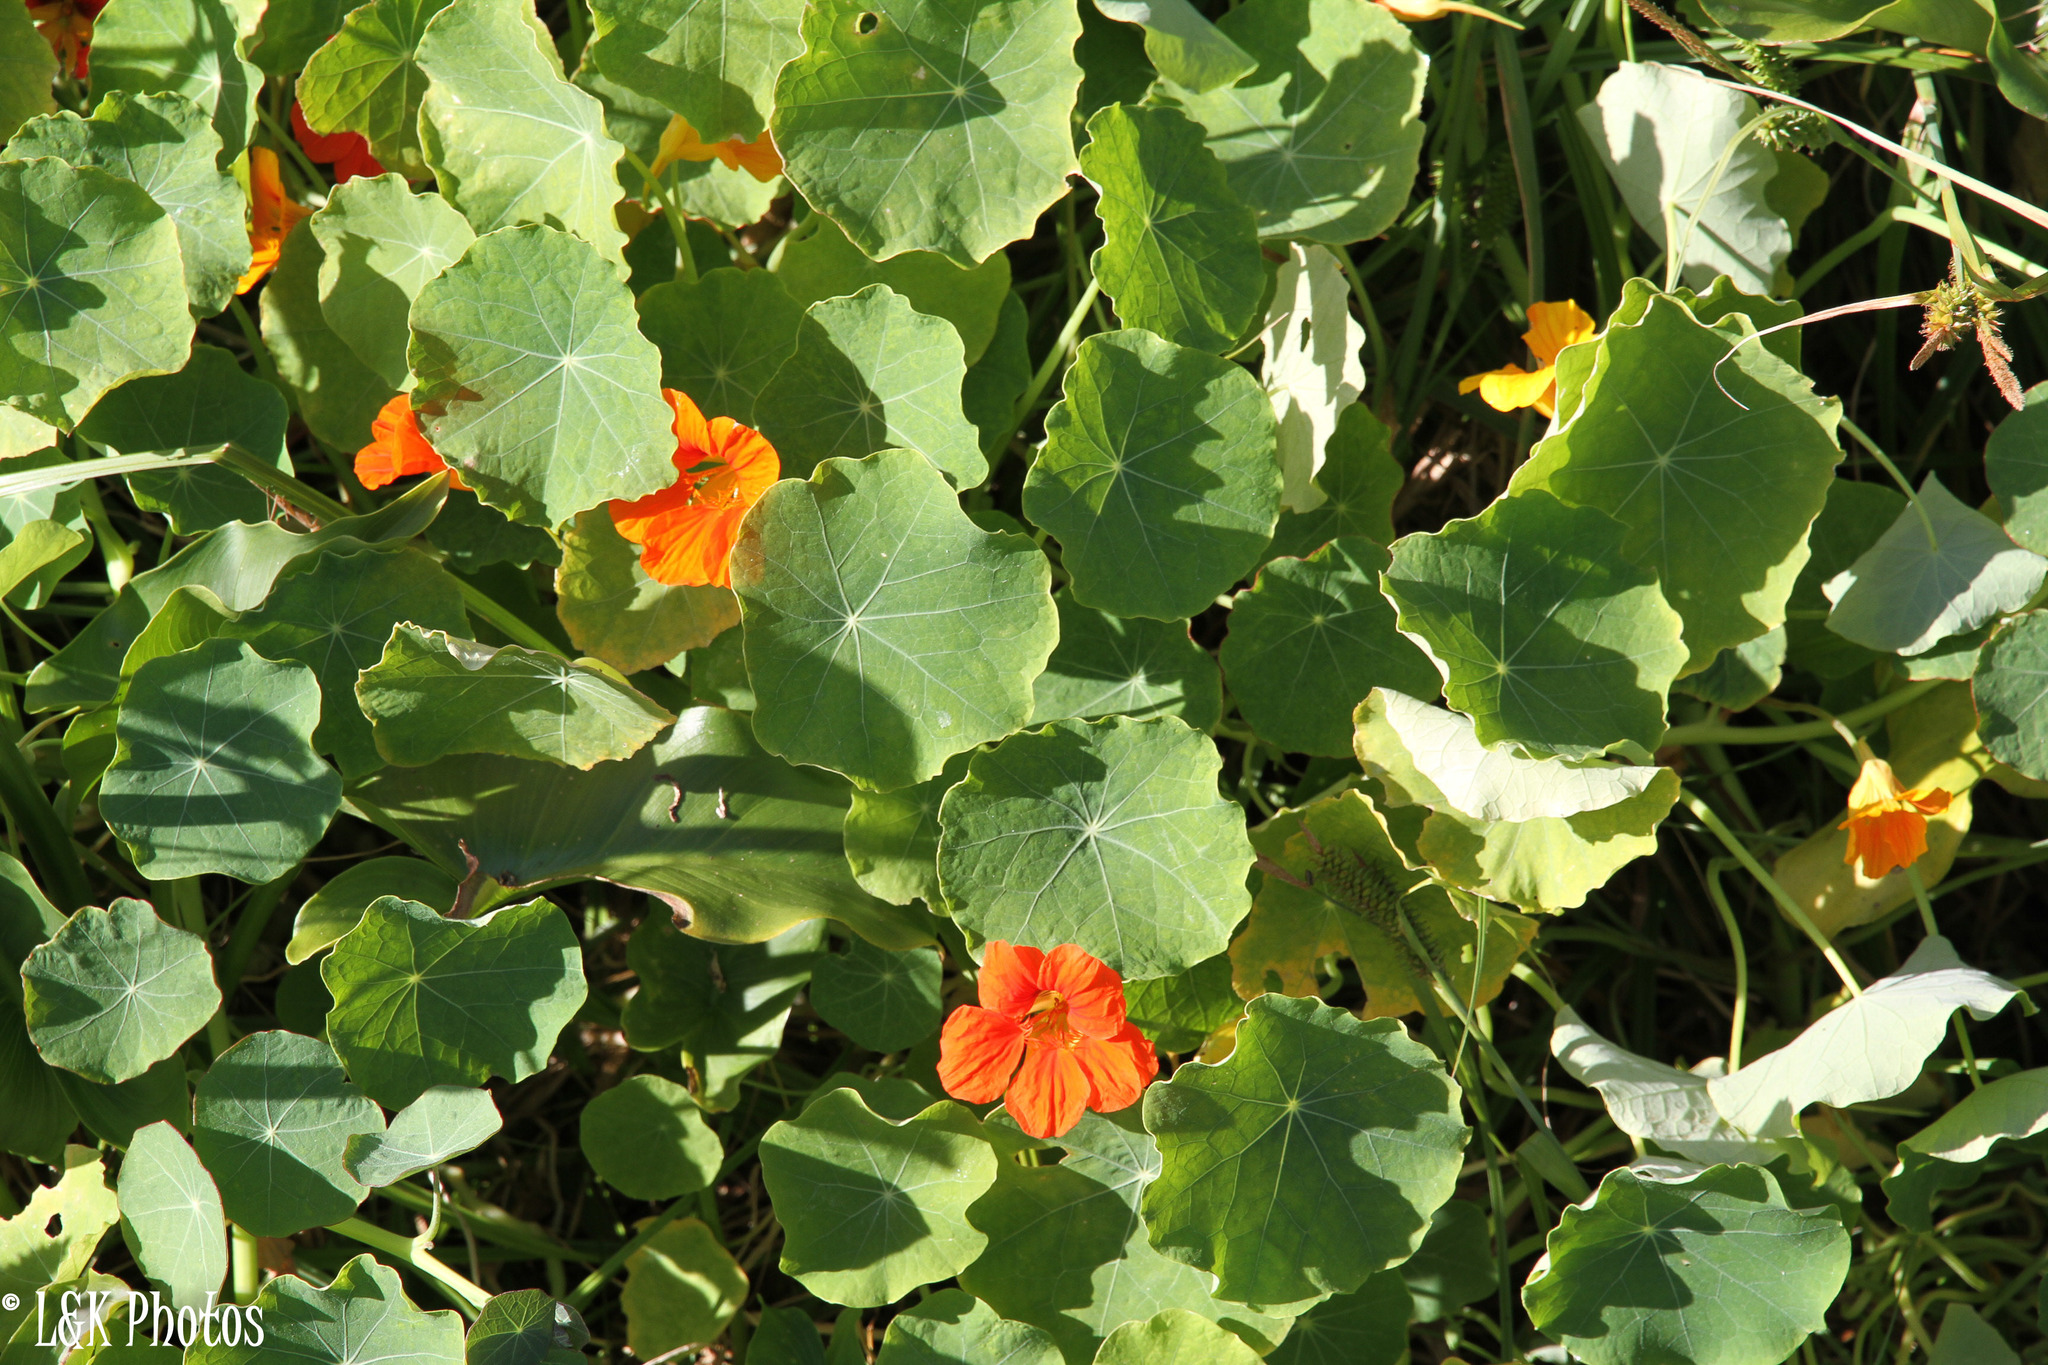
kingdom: Plantae
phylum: Tracheophyta
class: Magnoliopsida
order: Brassicales
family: Tropaeolaceae
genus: Tropaeolum
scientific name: Tropaeolum majus
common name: Nasturtium
